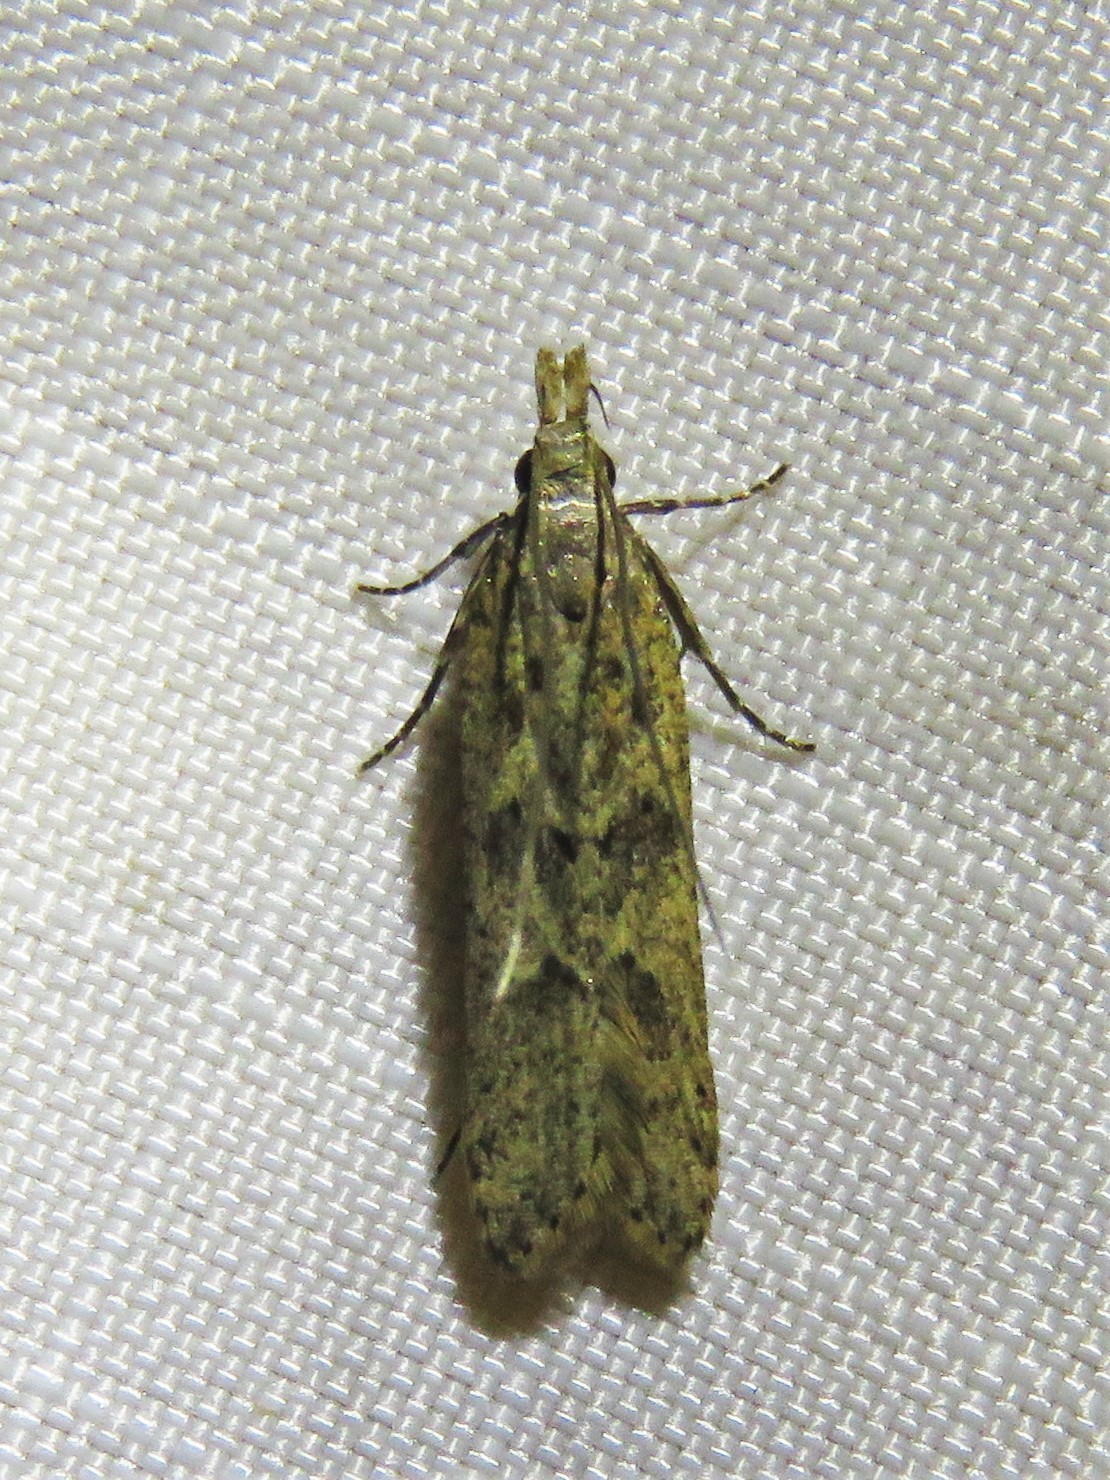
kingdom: Animalia
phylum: Arthropoda
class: Insecta
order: Lepidoptera
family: Gelechiidae
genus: Dichomeris
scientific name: Dichomeris ligulella
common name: Moth
